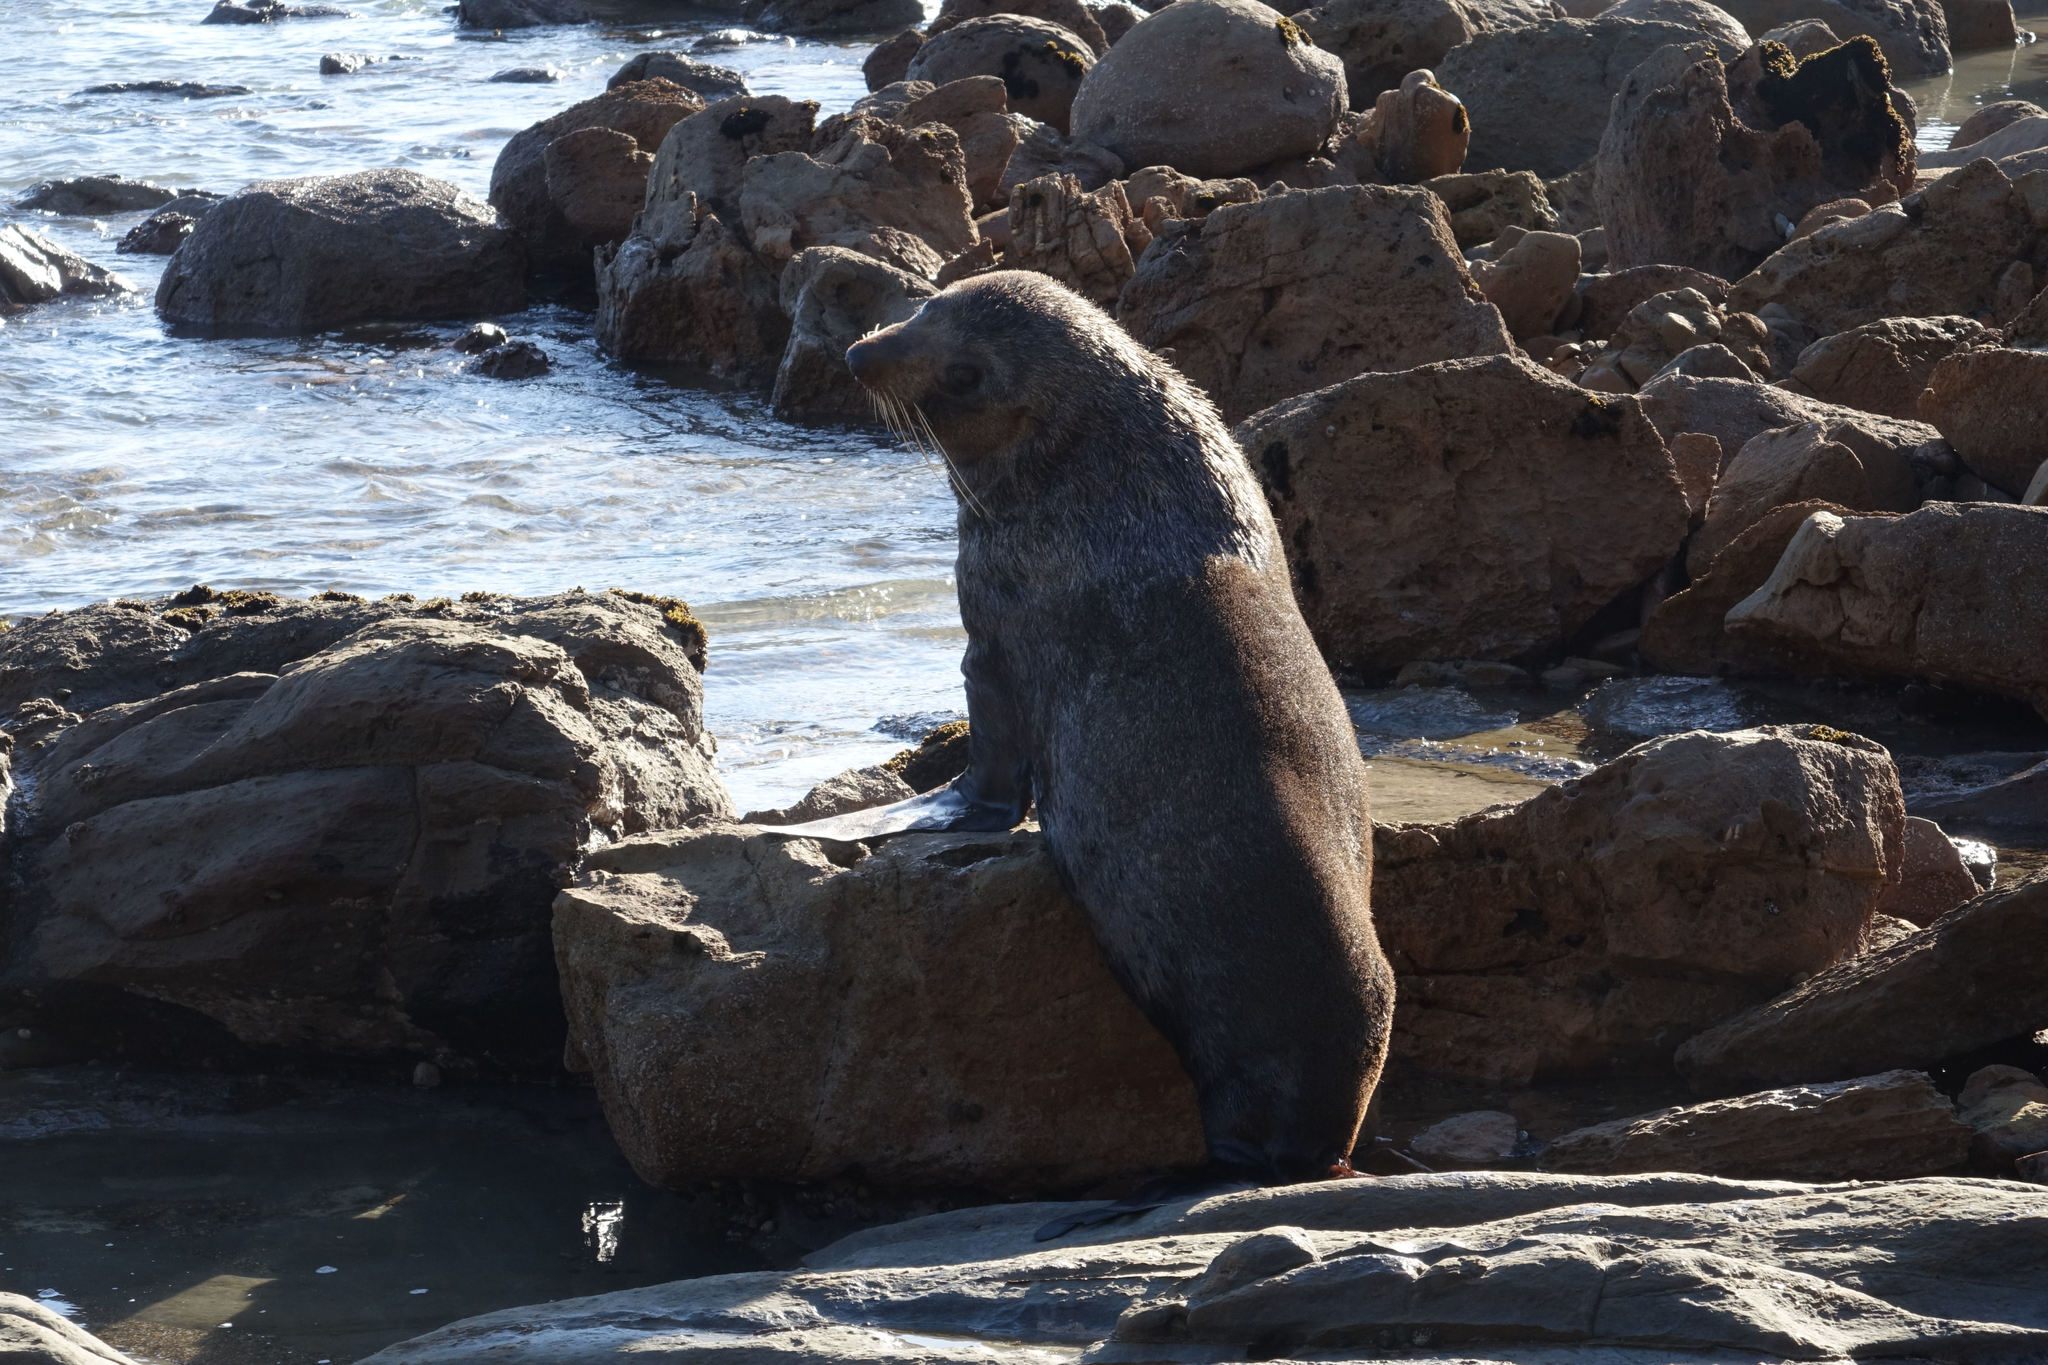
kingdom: Animalia
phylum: Chordata
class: Mammalia
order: Carnivora
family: Otariidae
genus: Arctocephalus
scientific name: Arctocephalus forsteri
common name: New zealand fur seal
